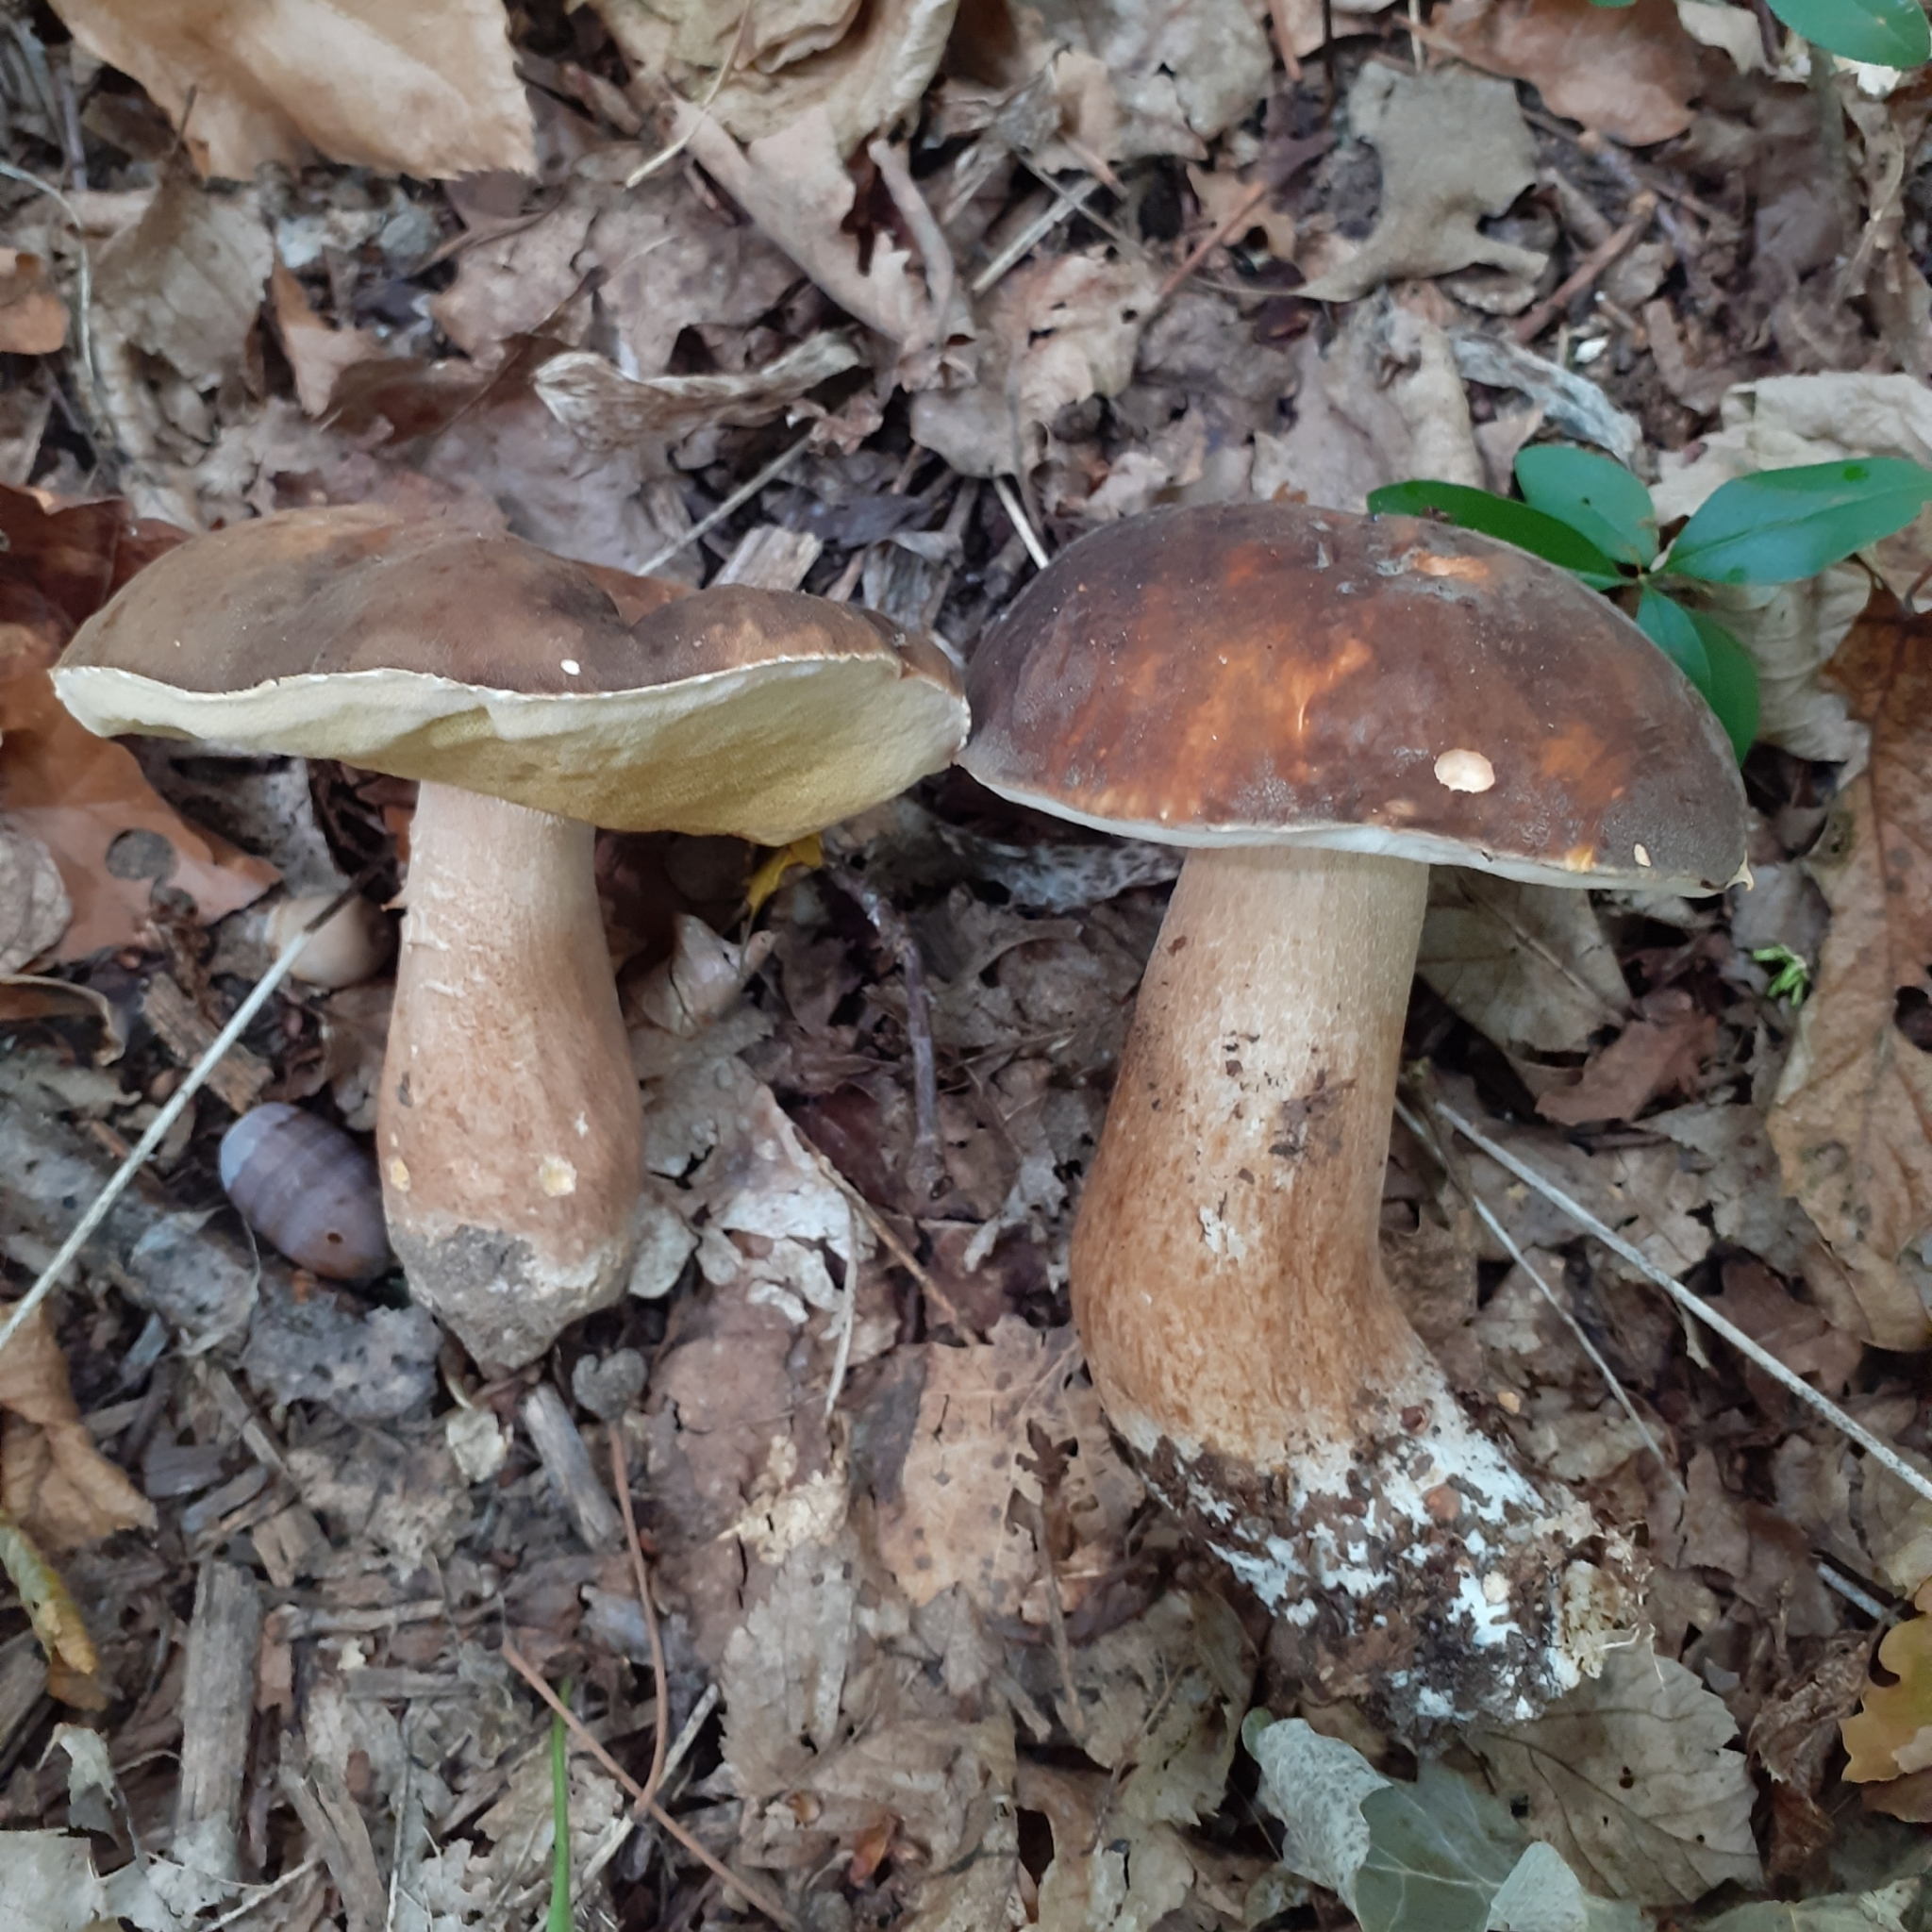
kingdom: Fungi
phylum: Basidiomycota
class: Agaricomycetes
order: Boletales
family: Boletaceae
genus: Boletus
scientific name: Boletus aereus
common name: Bronze bolete
